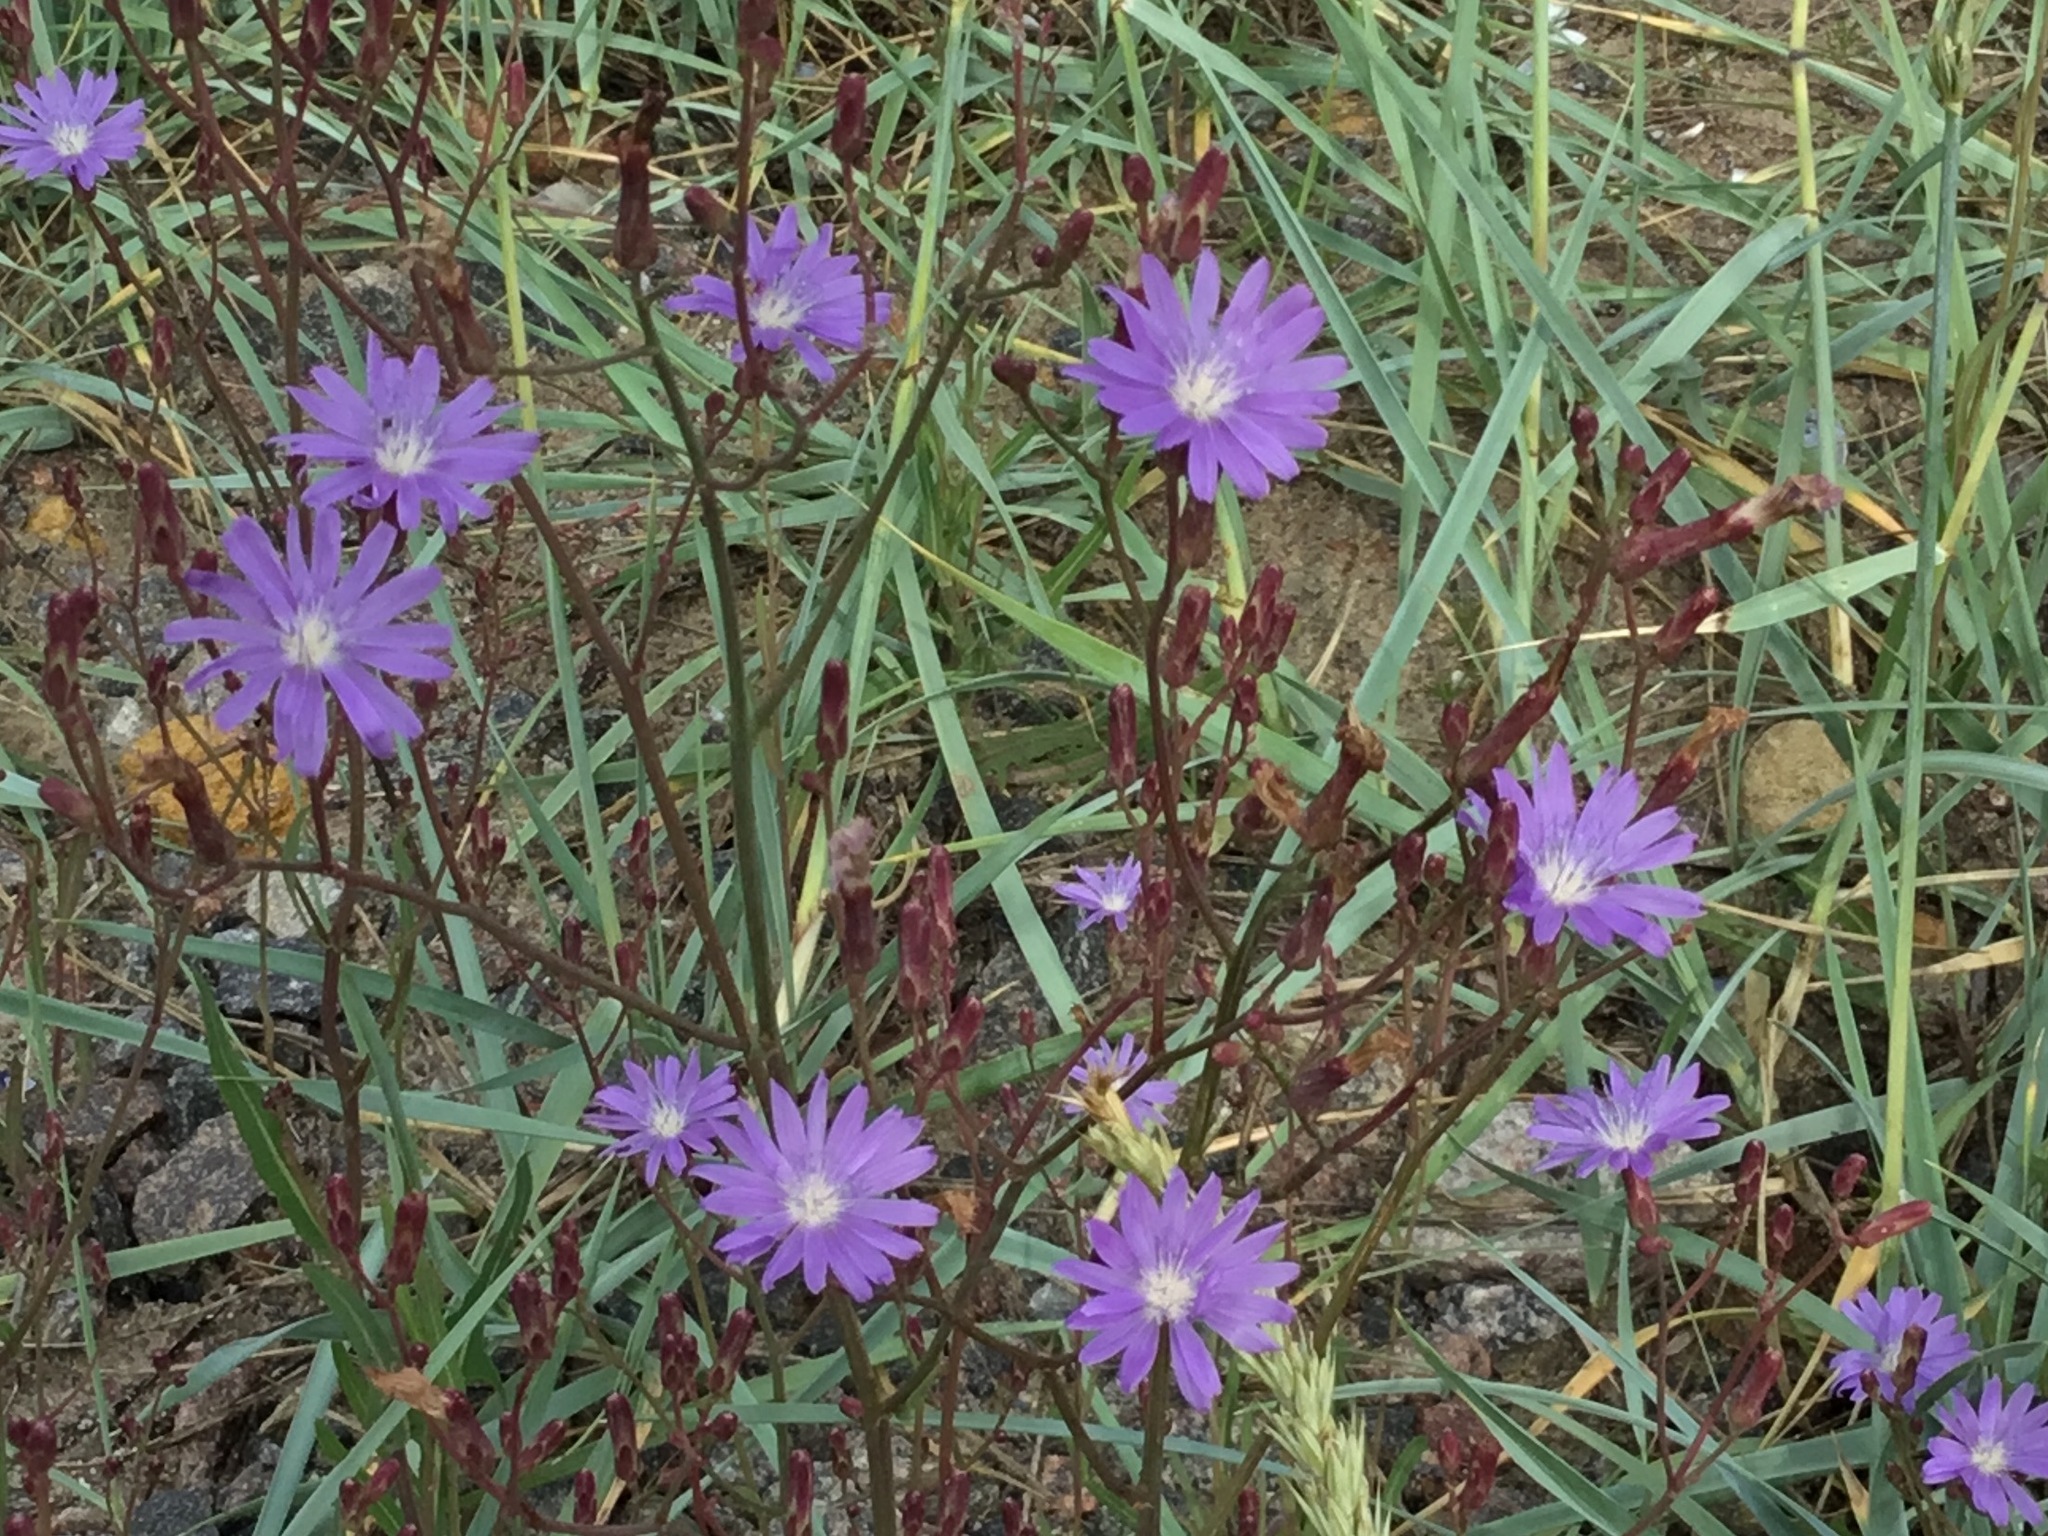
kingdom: Plantae
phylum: Tracheophyta
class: Magnoliopsida
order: Asterales
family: Asteraceae
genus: Lactuca
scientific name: Lactuca tatarica
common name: Blue lettuce
